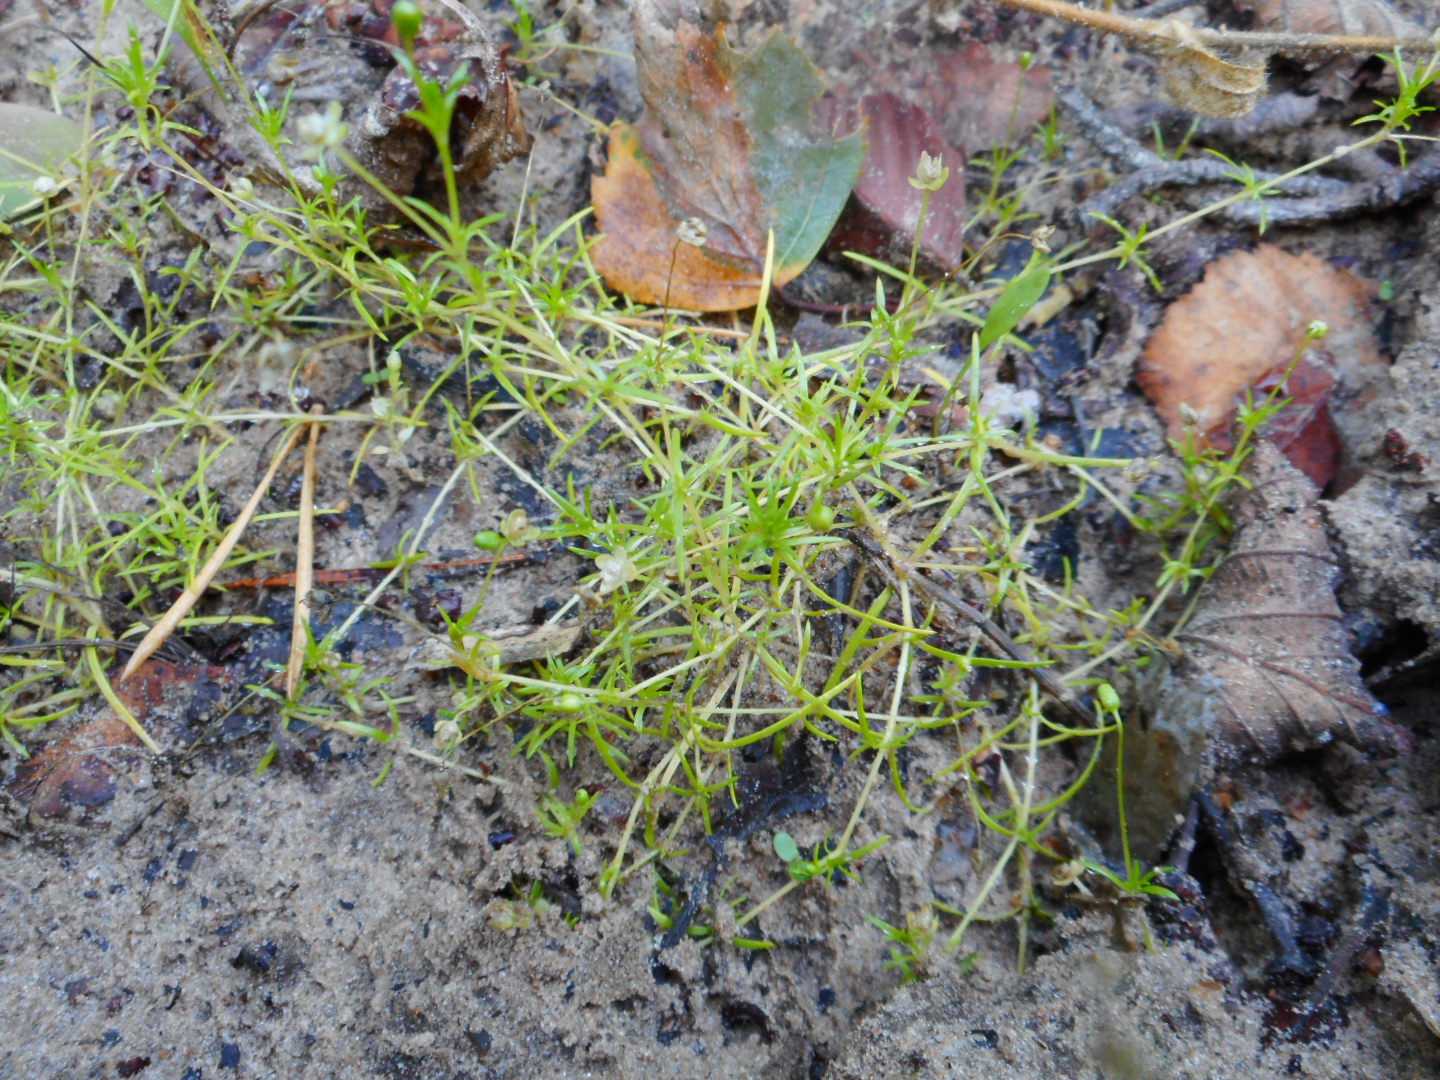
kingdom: Plantae
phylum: Tracheophyta
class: Magnoliopsida
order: Caryophyllales
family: Caryophyllaceae
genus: Sagina
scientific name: Sagina procumbens
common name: Procumbent pearlwort
